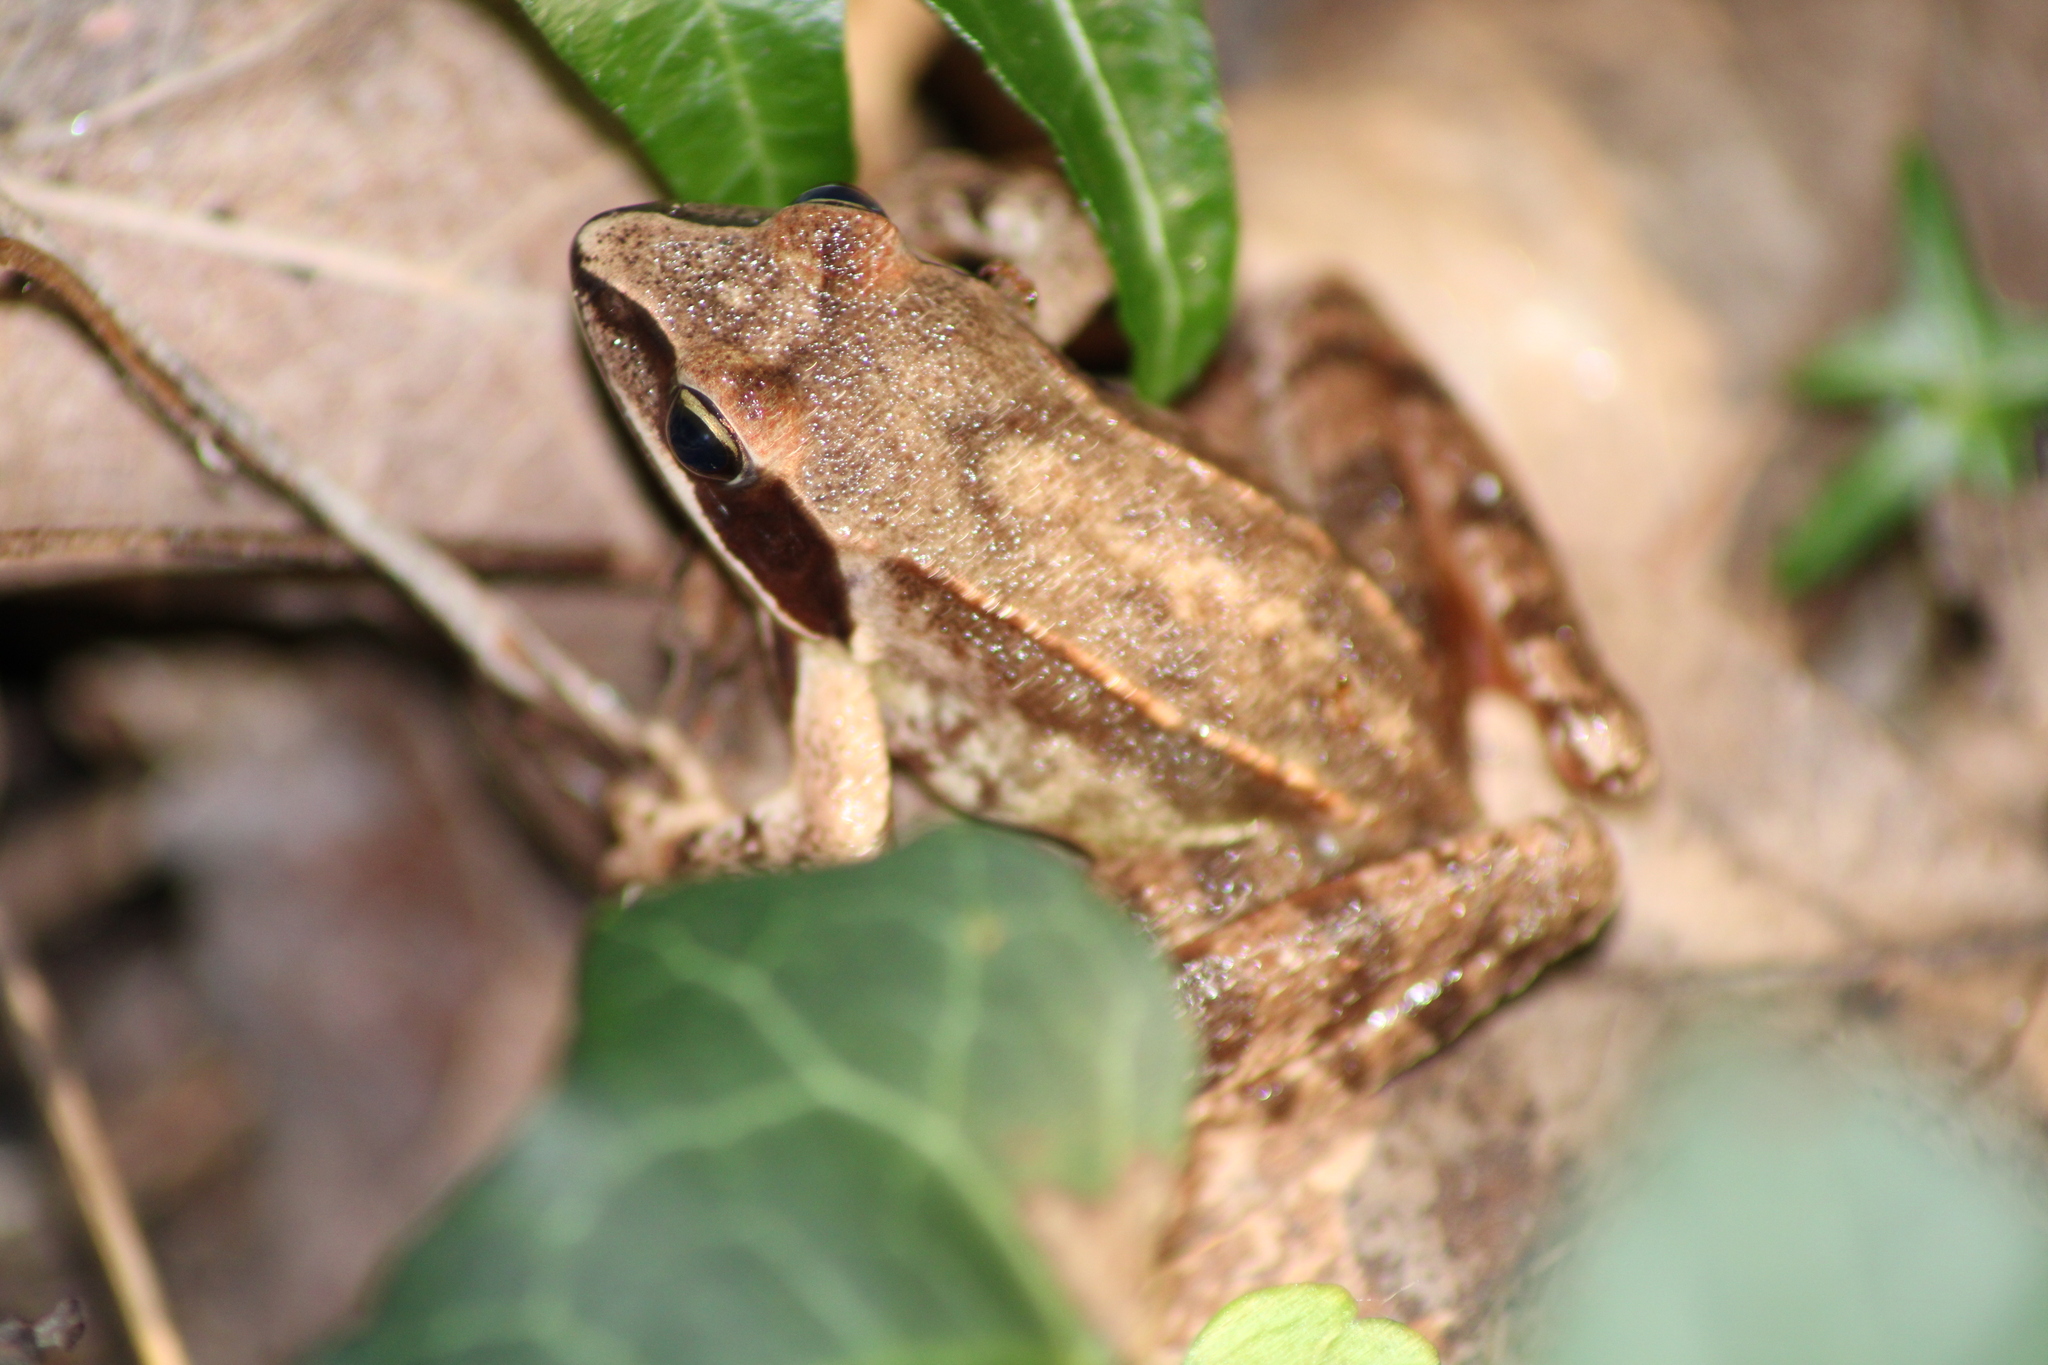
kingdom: Animalia
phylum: Chordata
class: Amphibia
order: Anura
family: Ranidae
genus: Rana
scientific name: Rana dalmatina
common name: Agile frog
